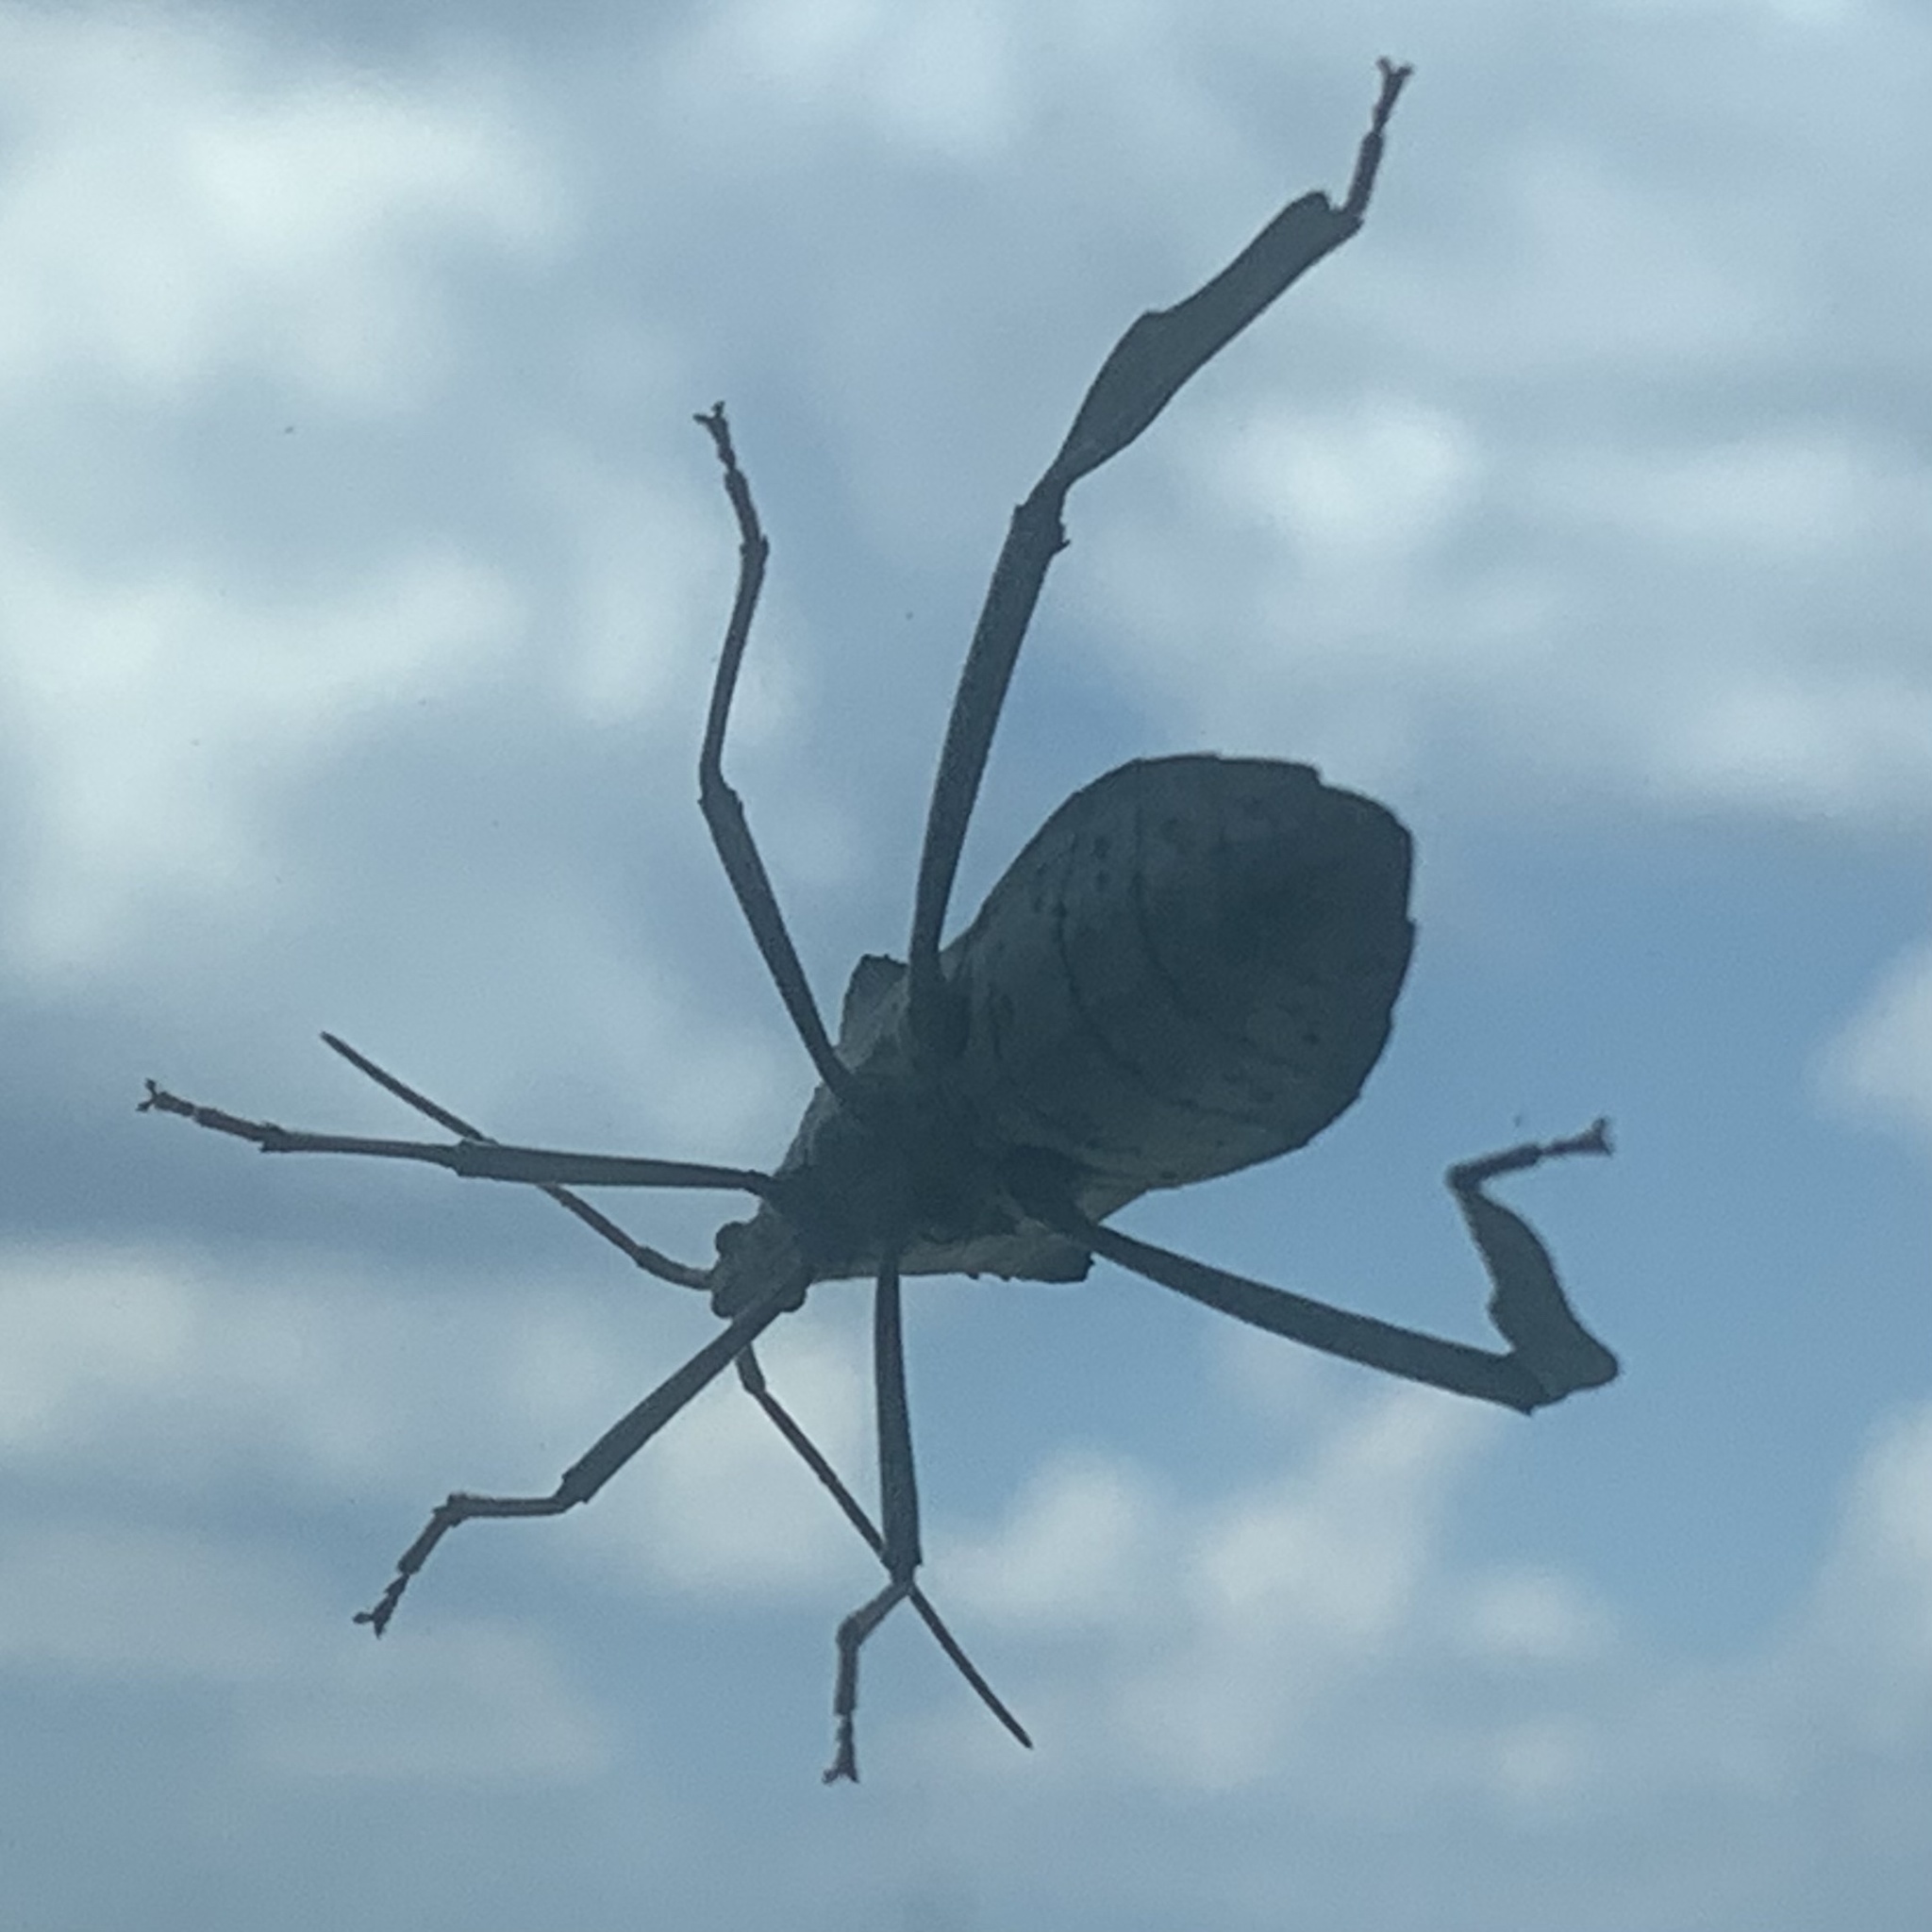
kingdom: Animalia
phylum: Arthropoda
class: Insecta
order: Hemiptera
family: Coreidae
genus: Acanthocephala
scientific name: Acanthocephala declivis
